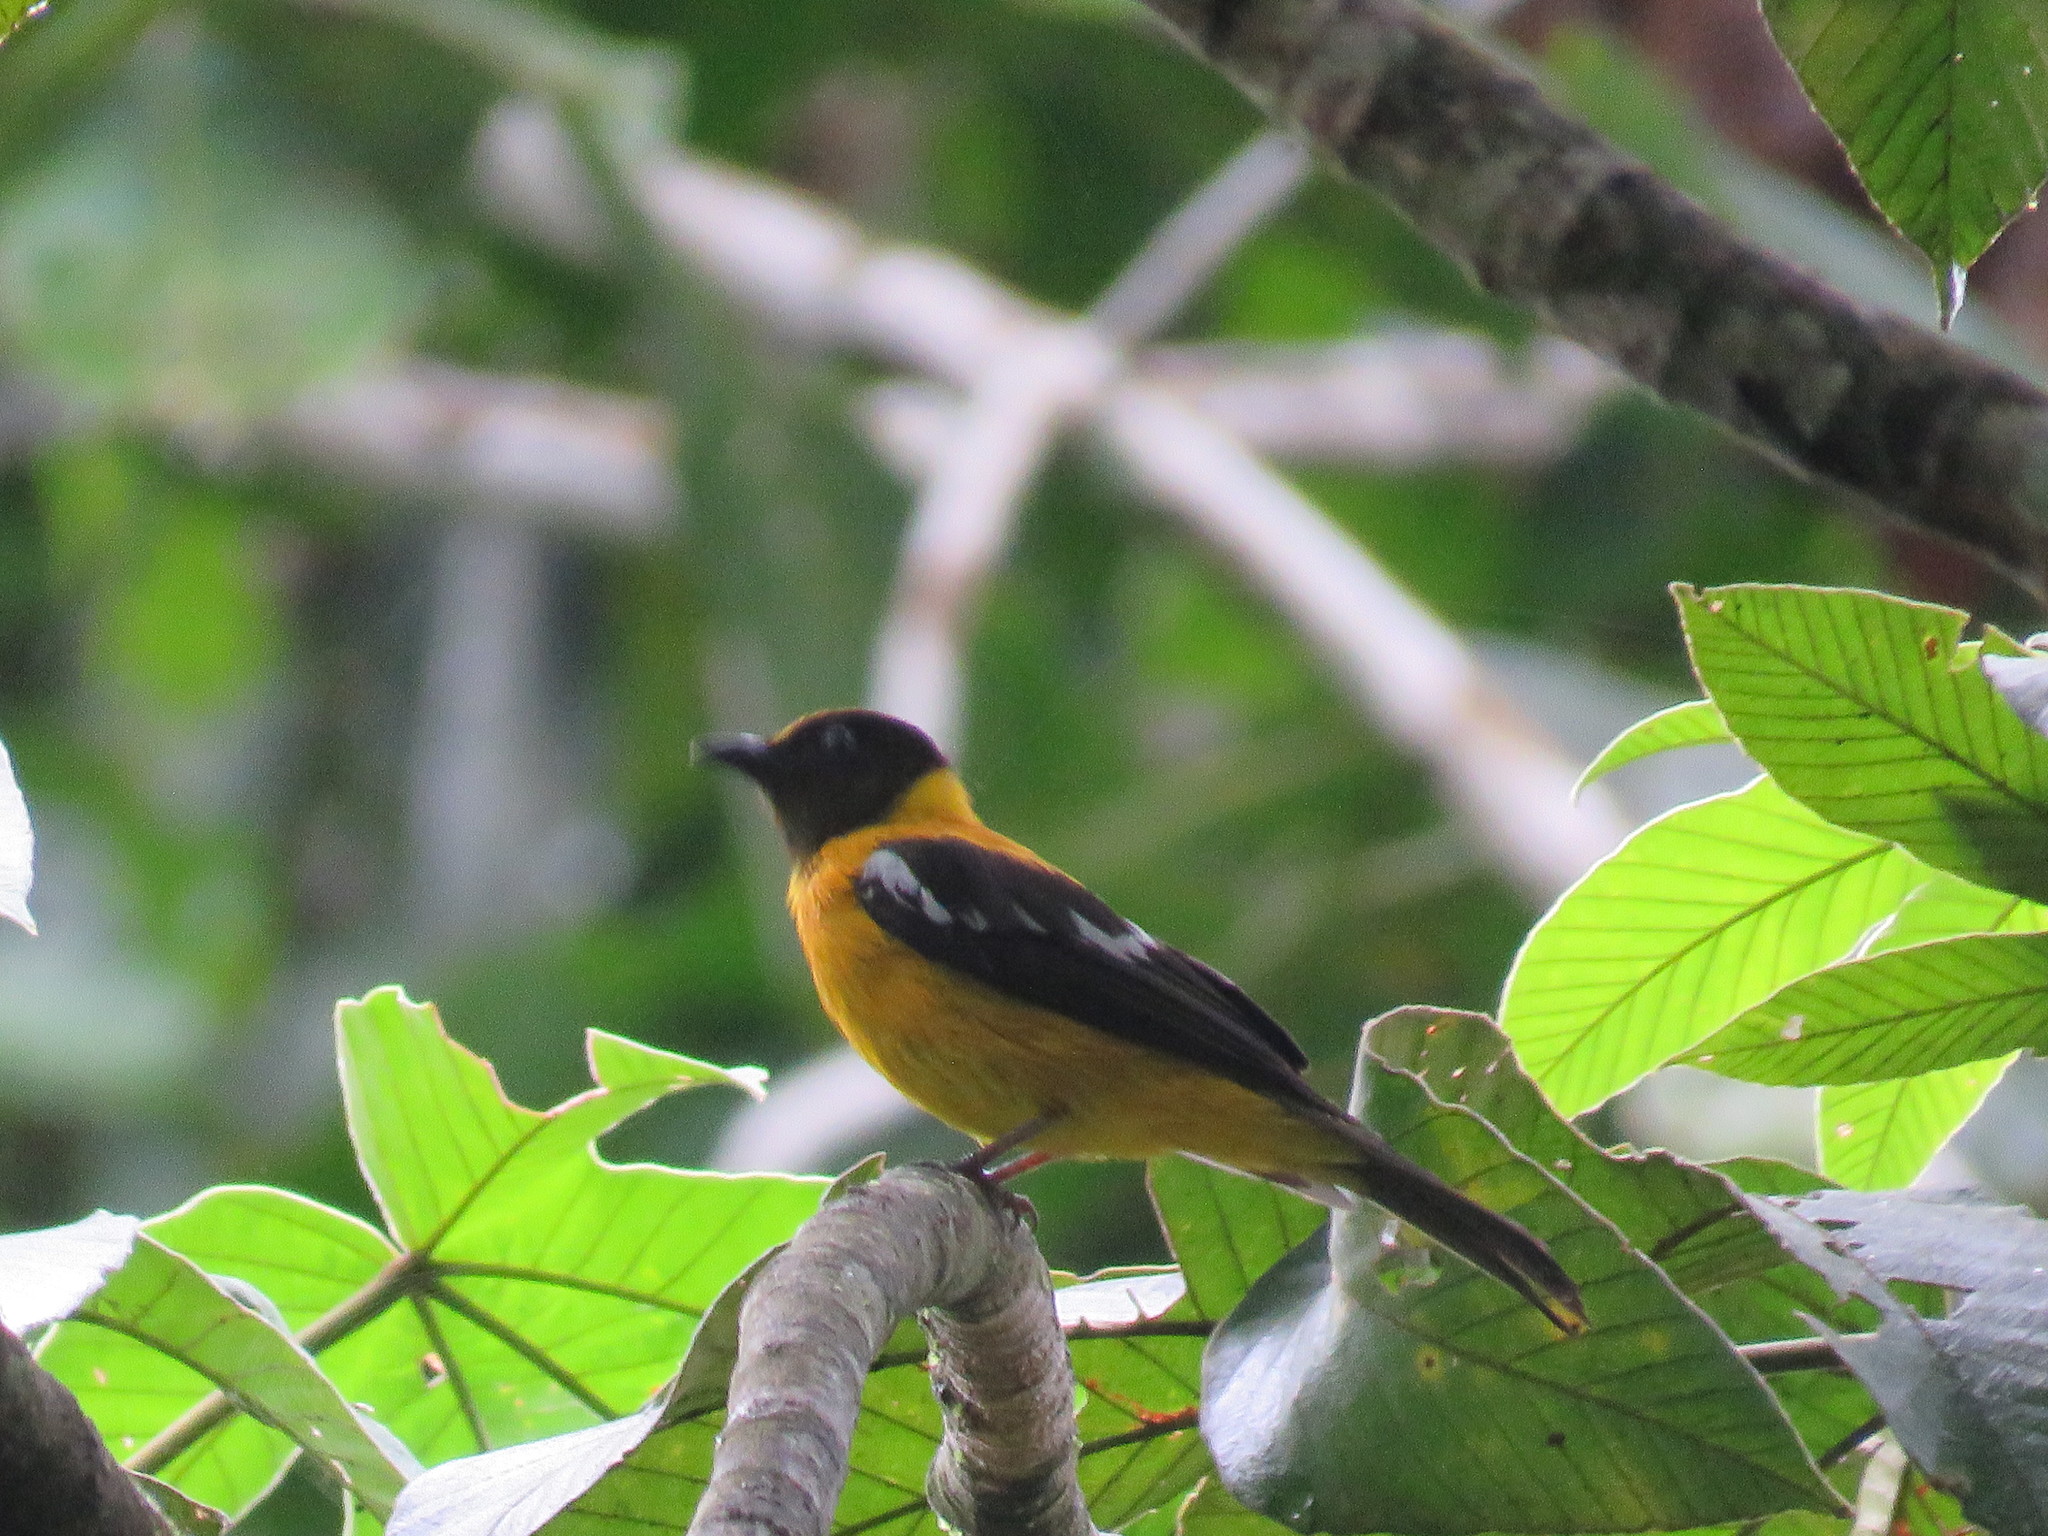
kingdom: Animalia
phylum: Chordata
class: Aves
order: Passeriformes
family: Thraupidae
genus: Lanio
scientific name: Lanio versicolor
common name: White-winged shrike-tanager
